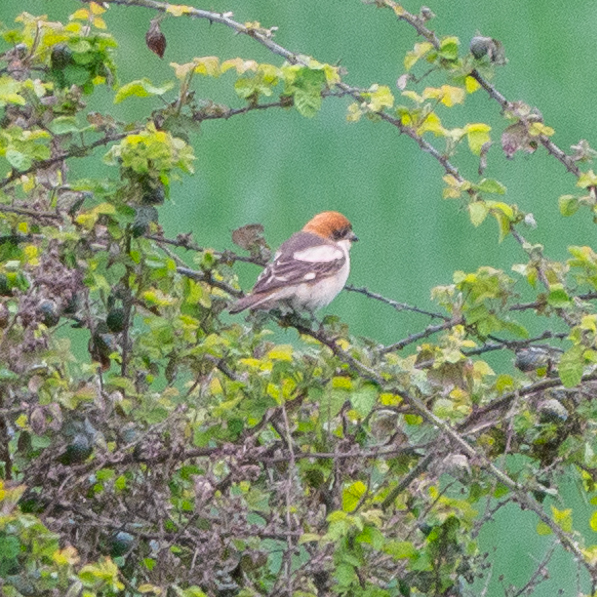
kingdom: Animalia
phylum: Chordata
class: Aves
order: Passeriformes
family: Laniidae
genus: Lanius
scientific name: Lanius senator
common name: Woodchat shrike
